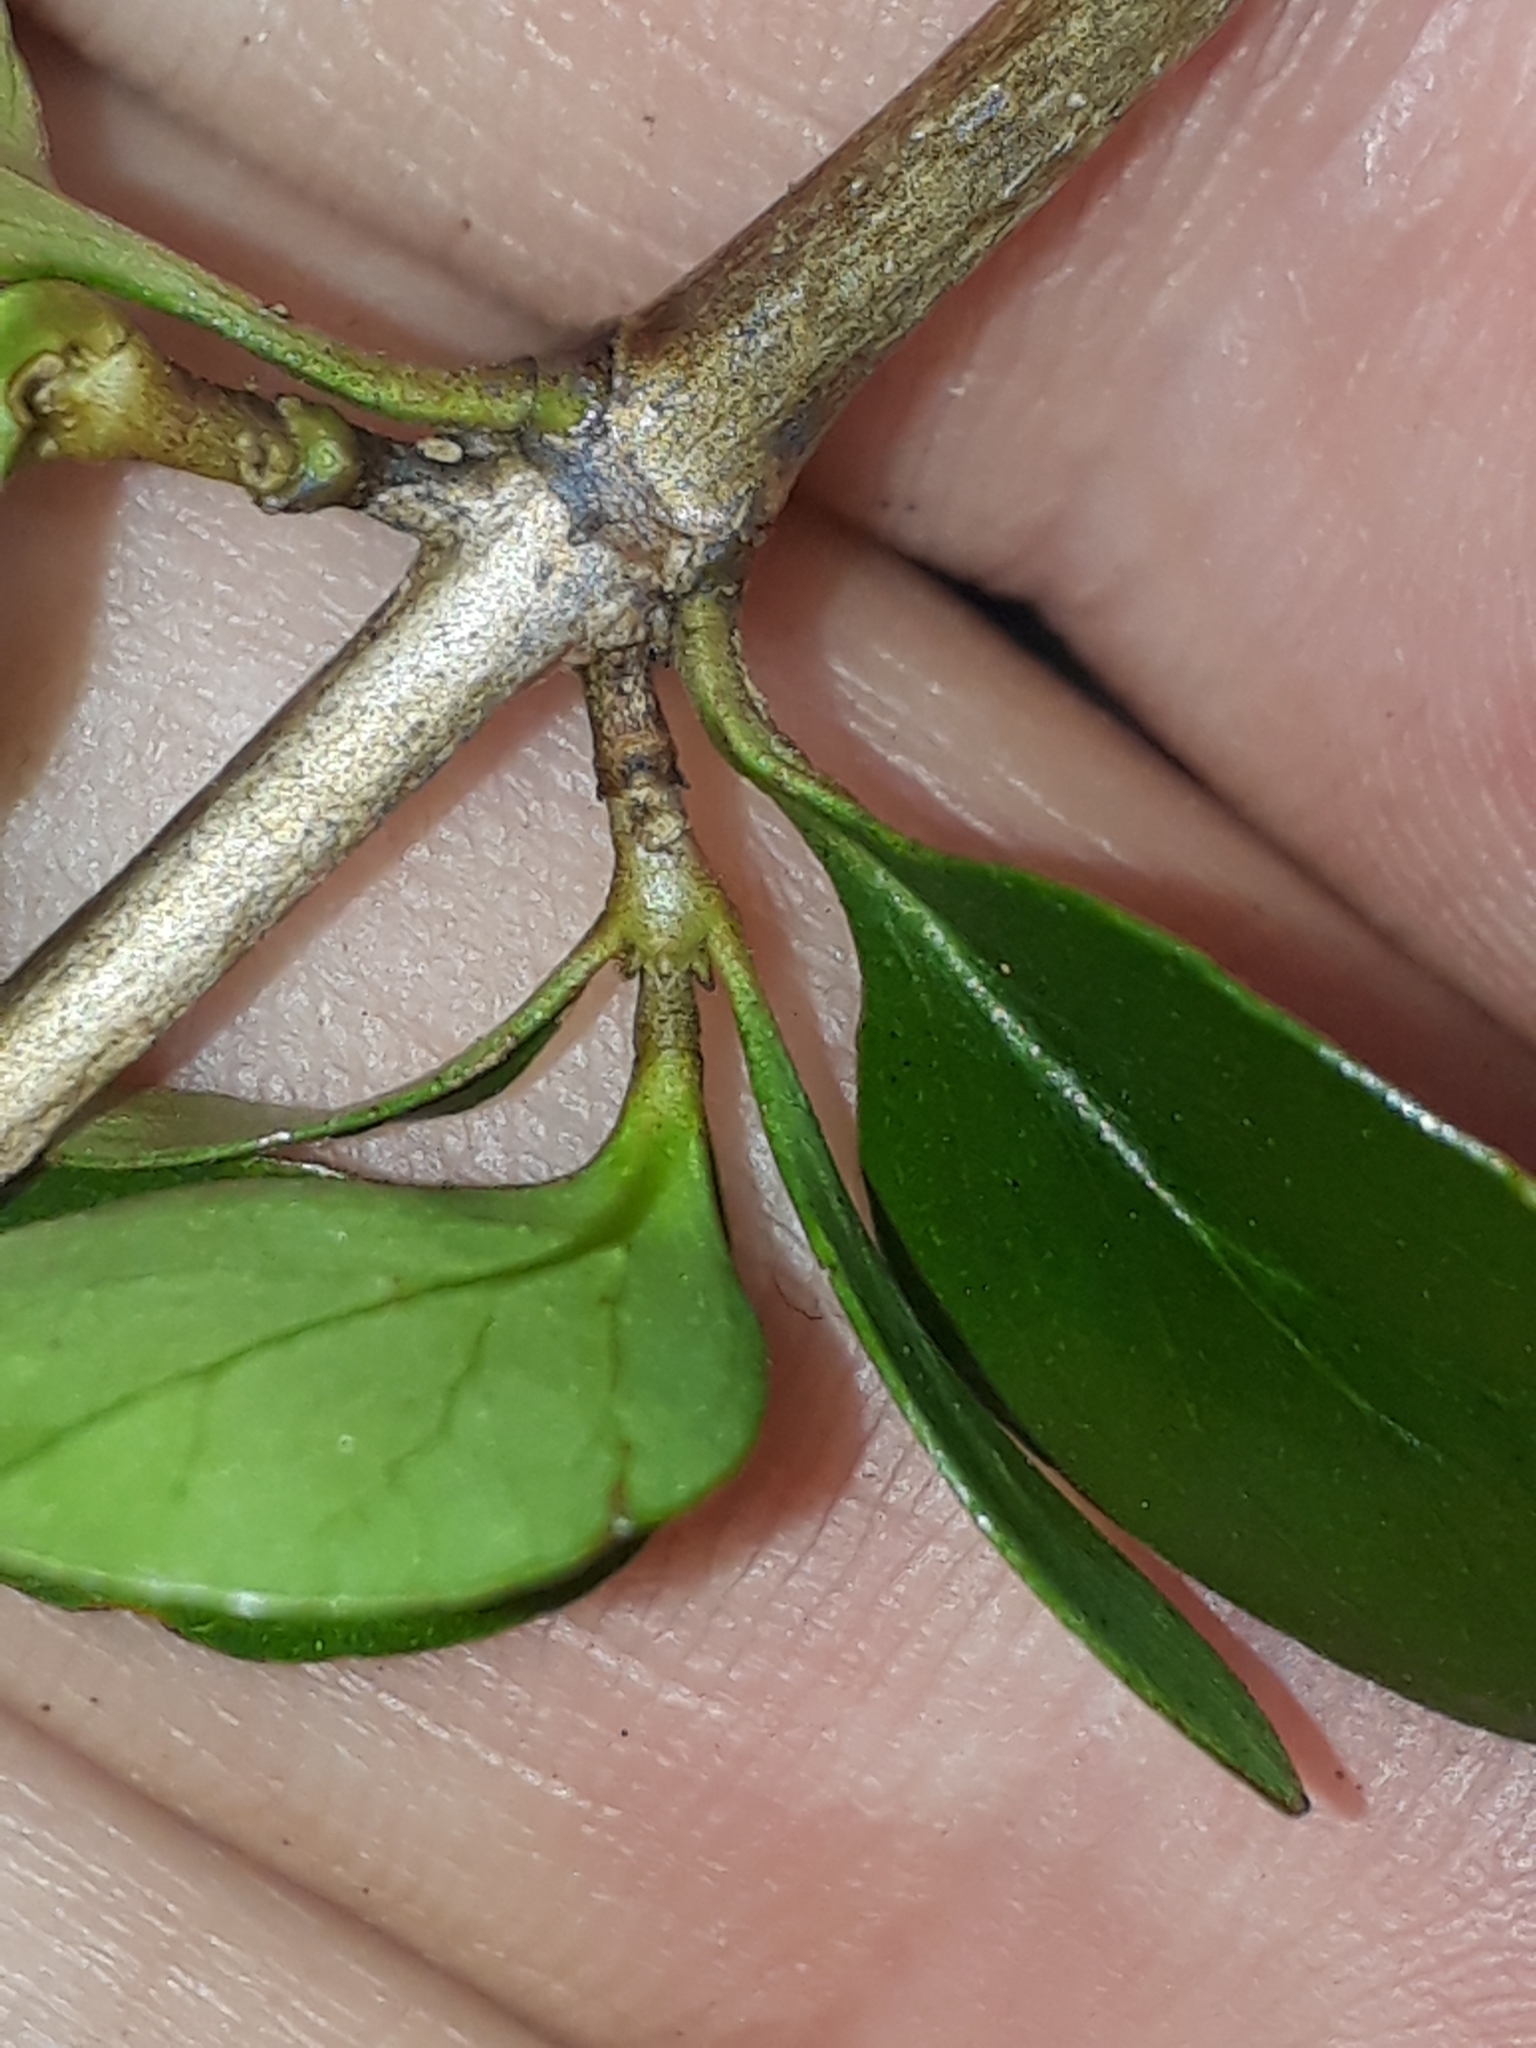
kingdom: Plantae
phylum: Tracheophyta
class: Magnoliopsida
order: Gentianales
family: Rubiaceae
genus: Coprosma
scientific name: Coprosma neglecta
